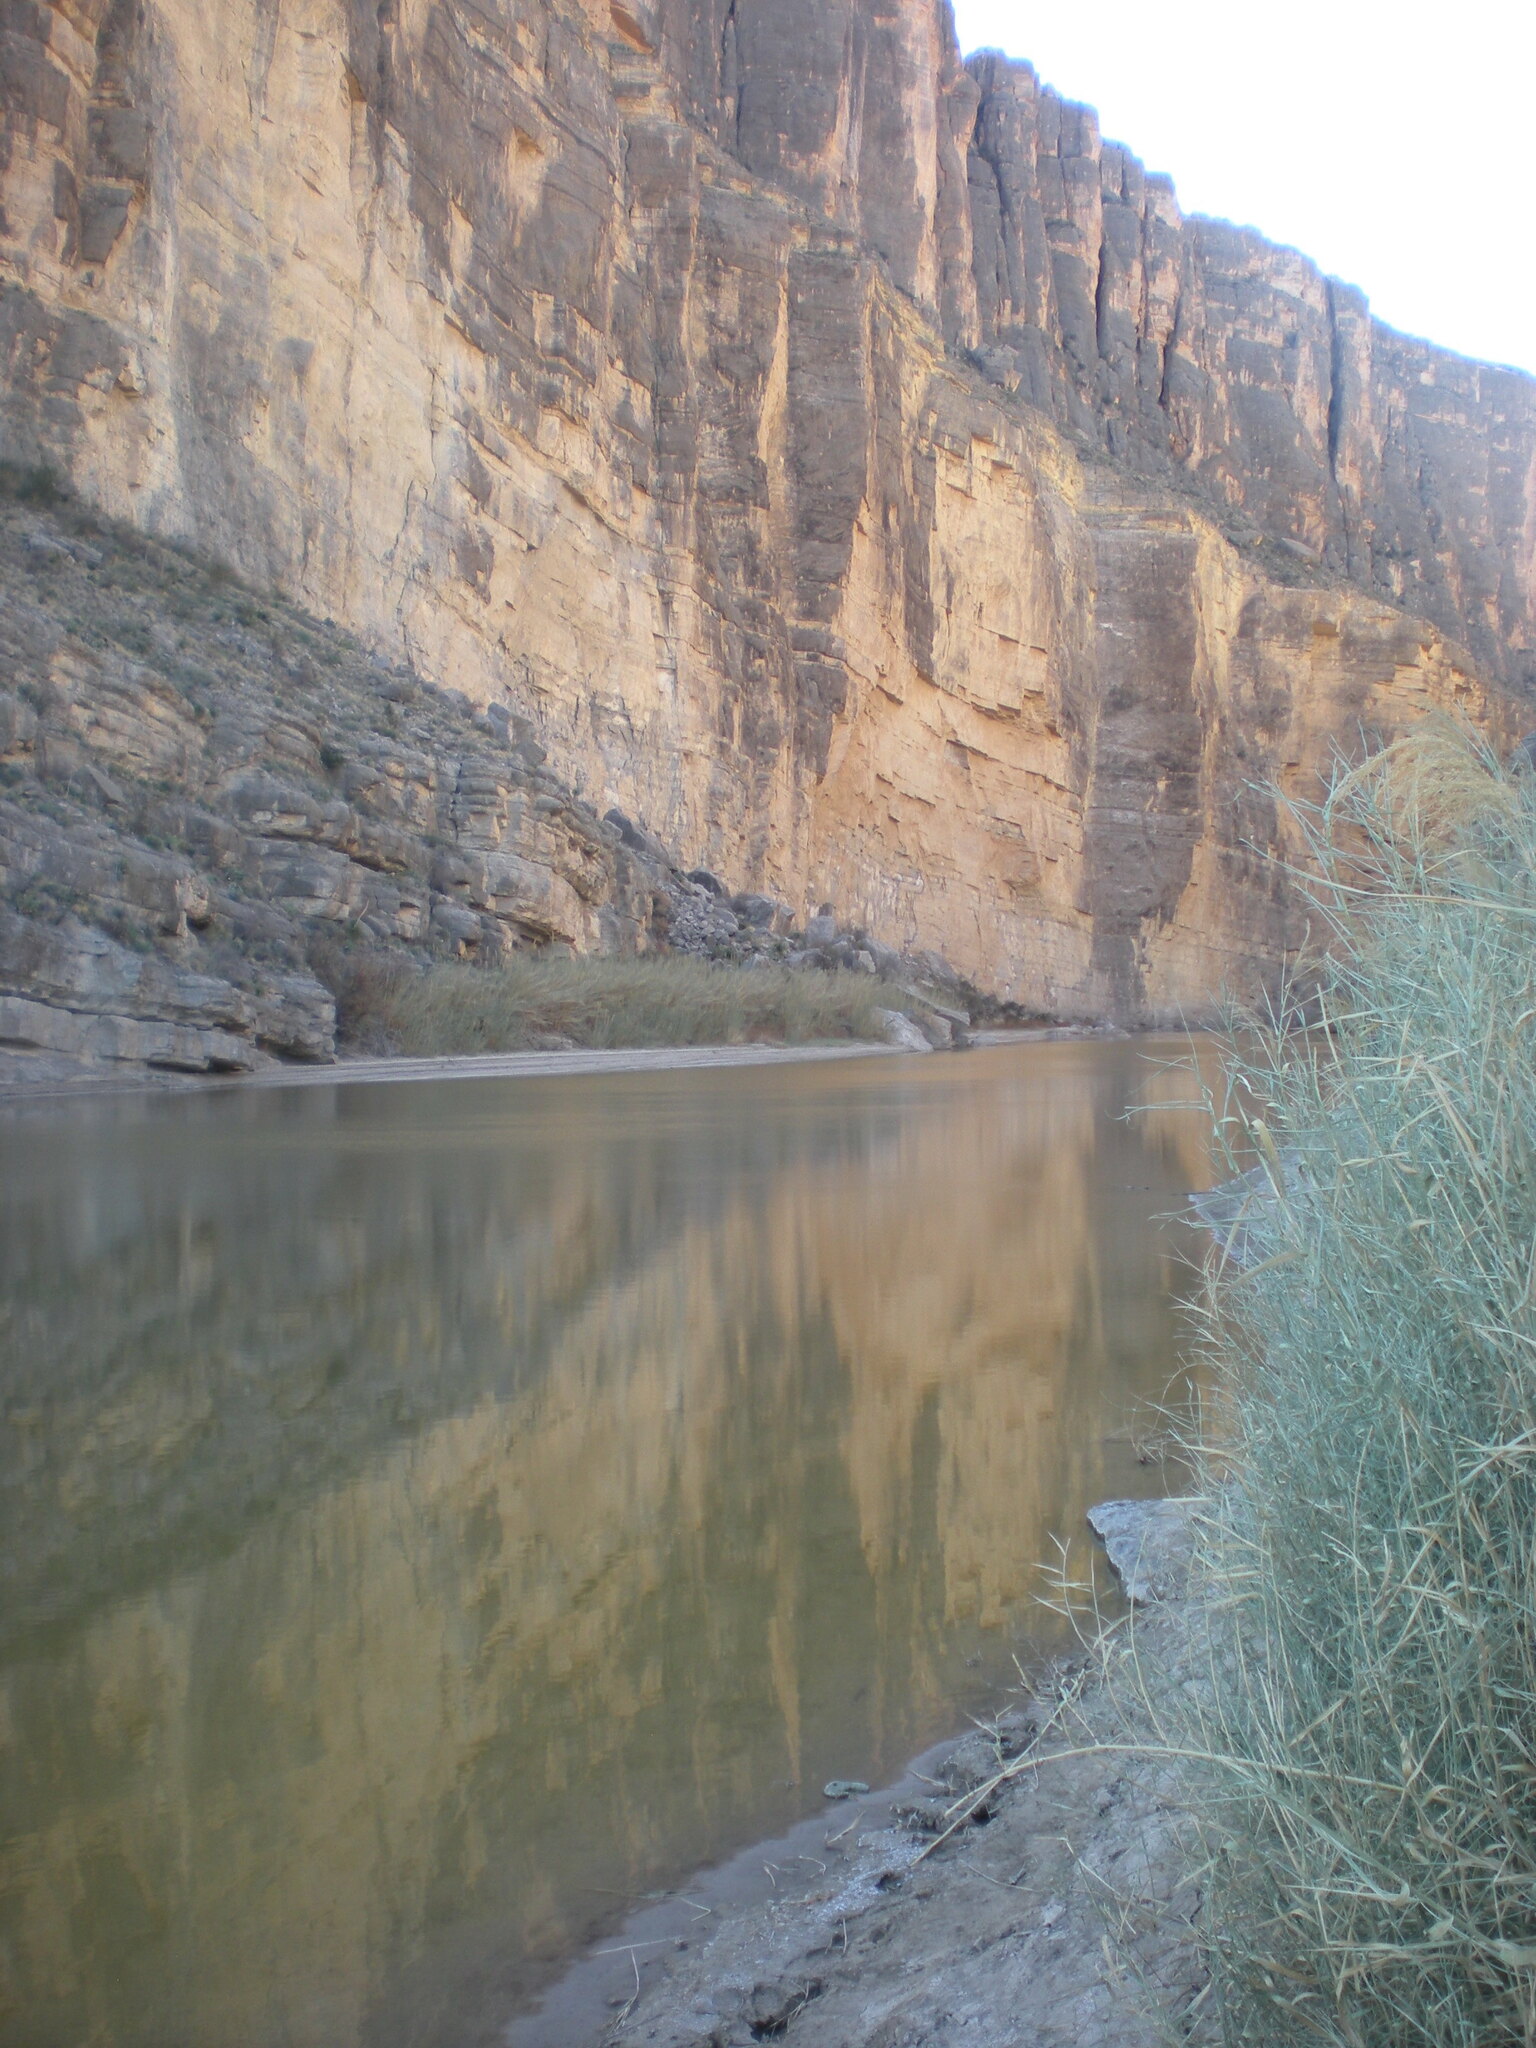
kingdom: Plantae
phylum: Tracheophyta
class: Liliopsida
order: Poales
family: Poaceae
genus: Phragmites
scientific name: Phragmites australis
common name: Common reed
